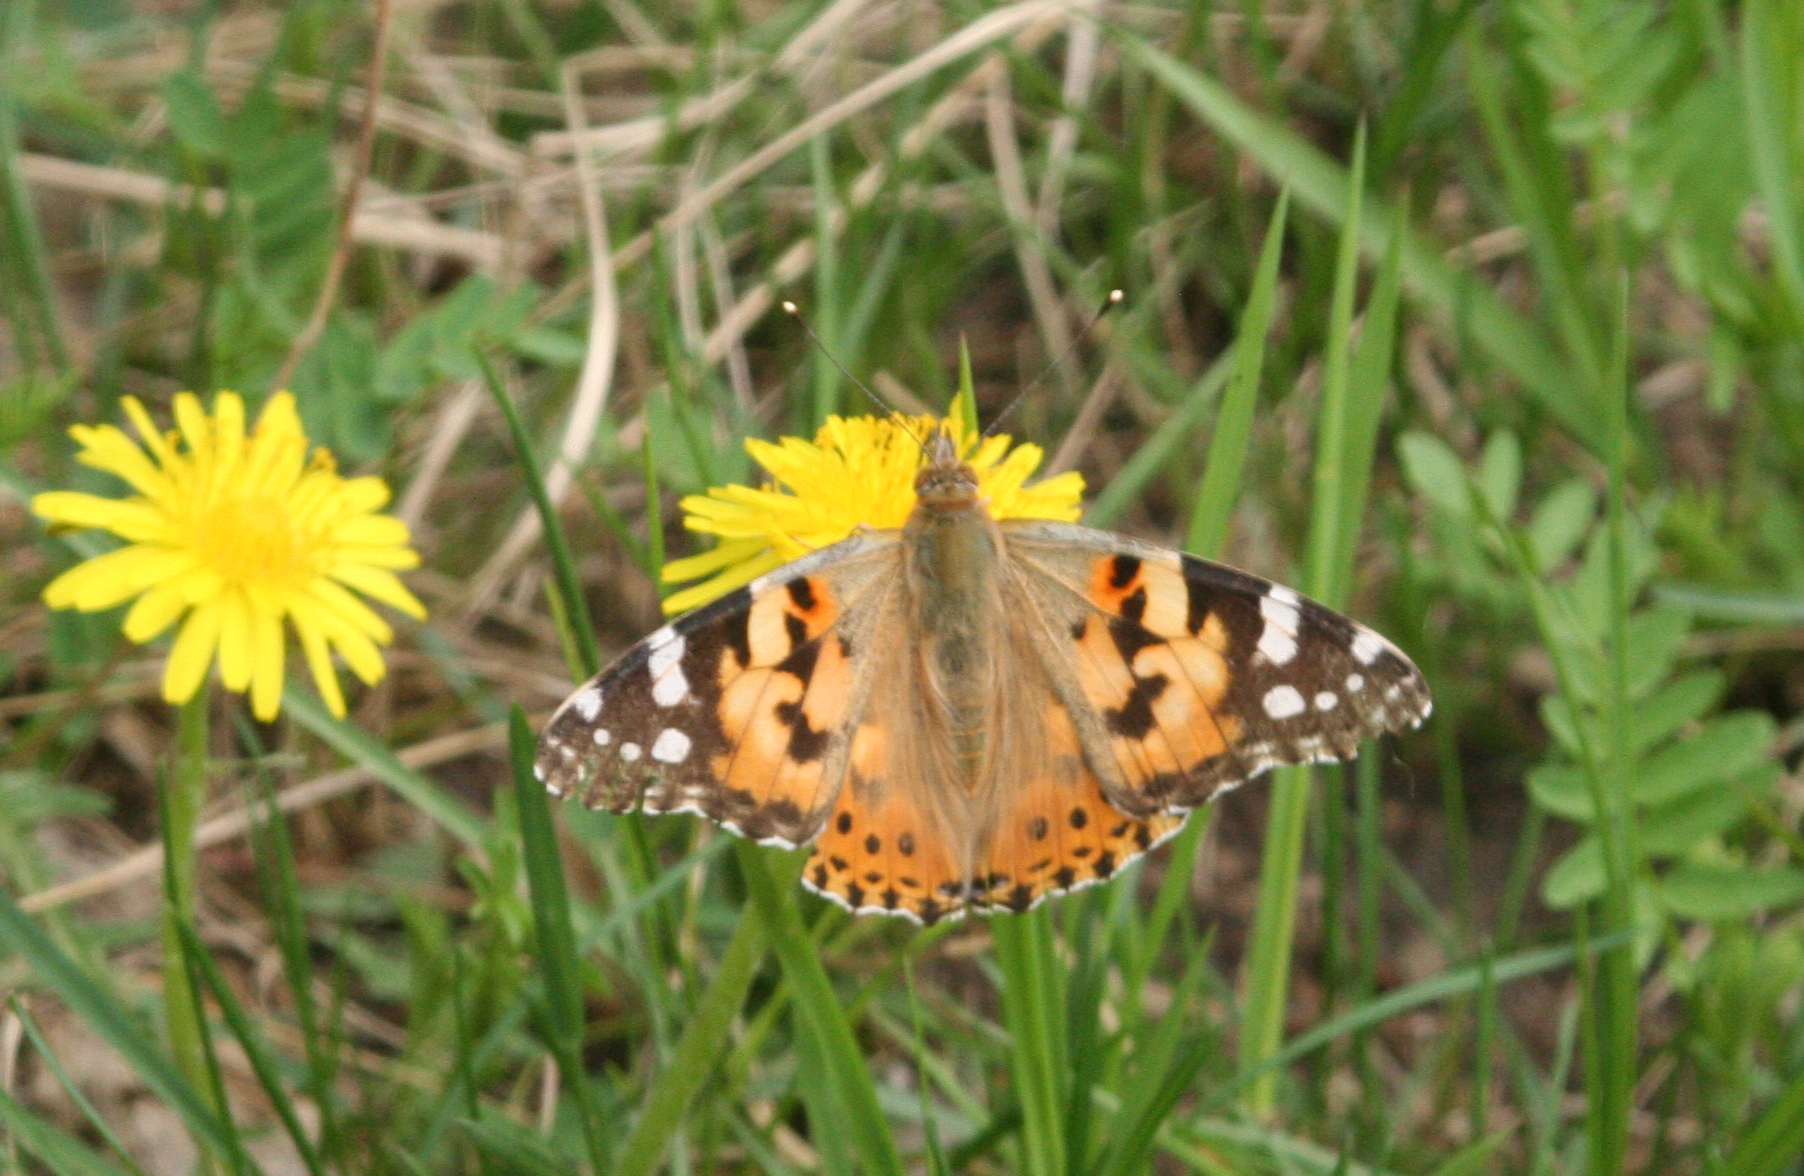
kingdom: Animalia
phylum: Arthropoda
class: Insecta
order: Lepidoptera
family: Nymphalidae
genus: Vanessa
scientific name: Vanessa cardui
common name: Painted lady
